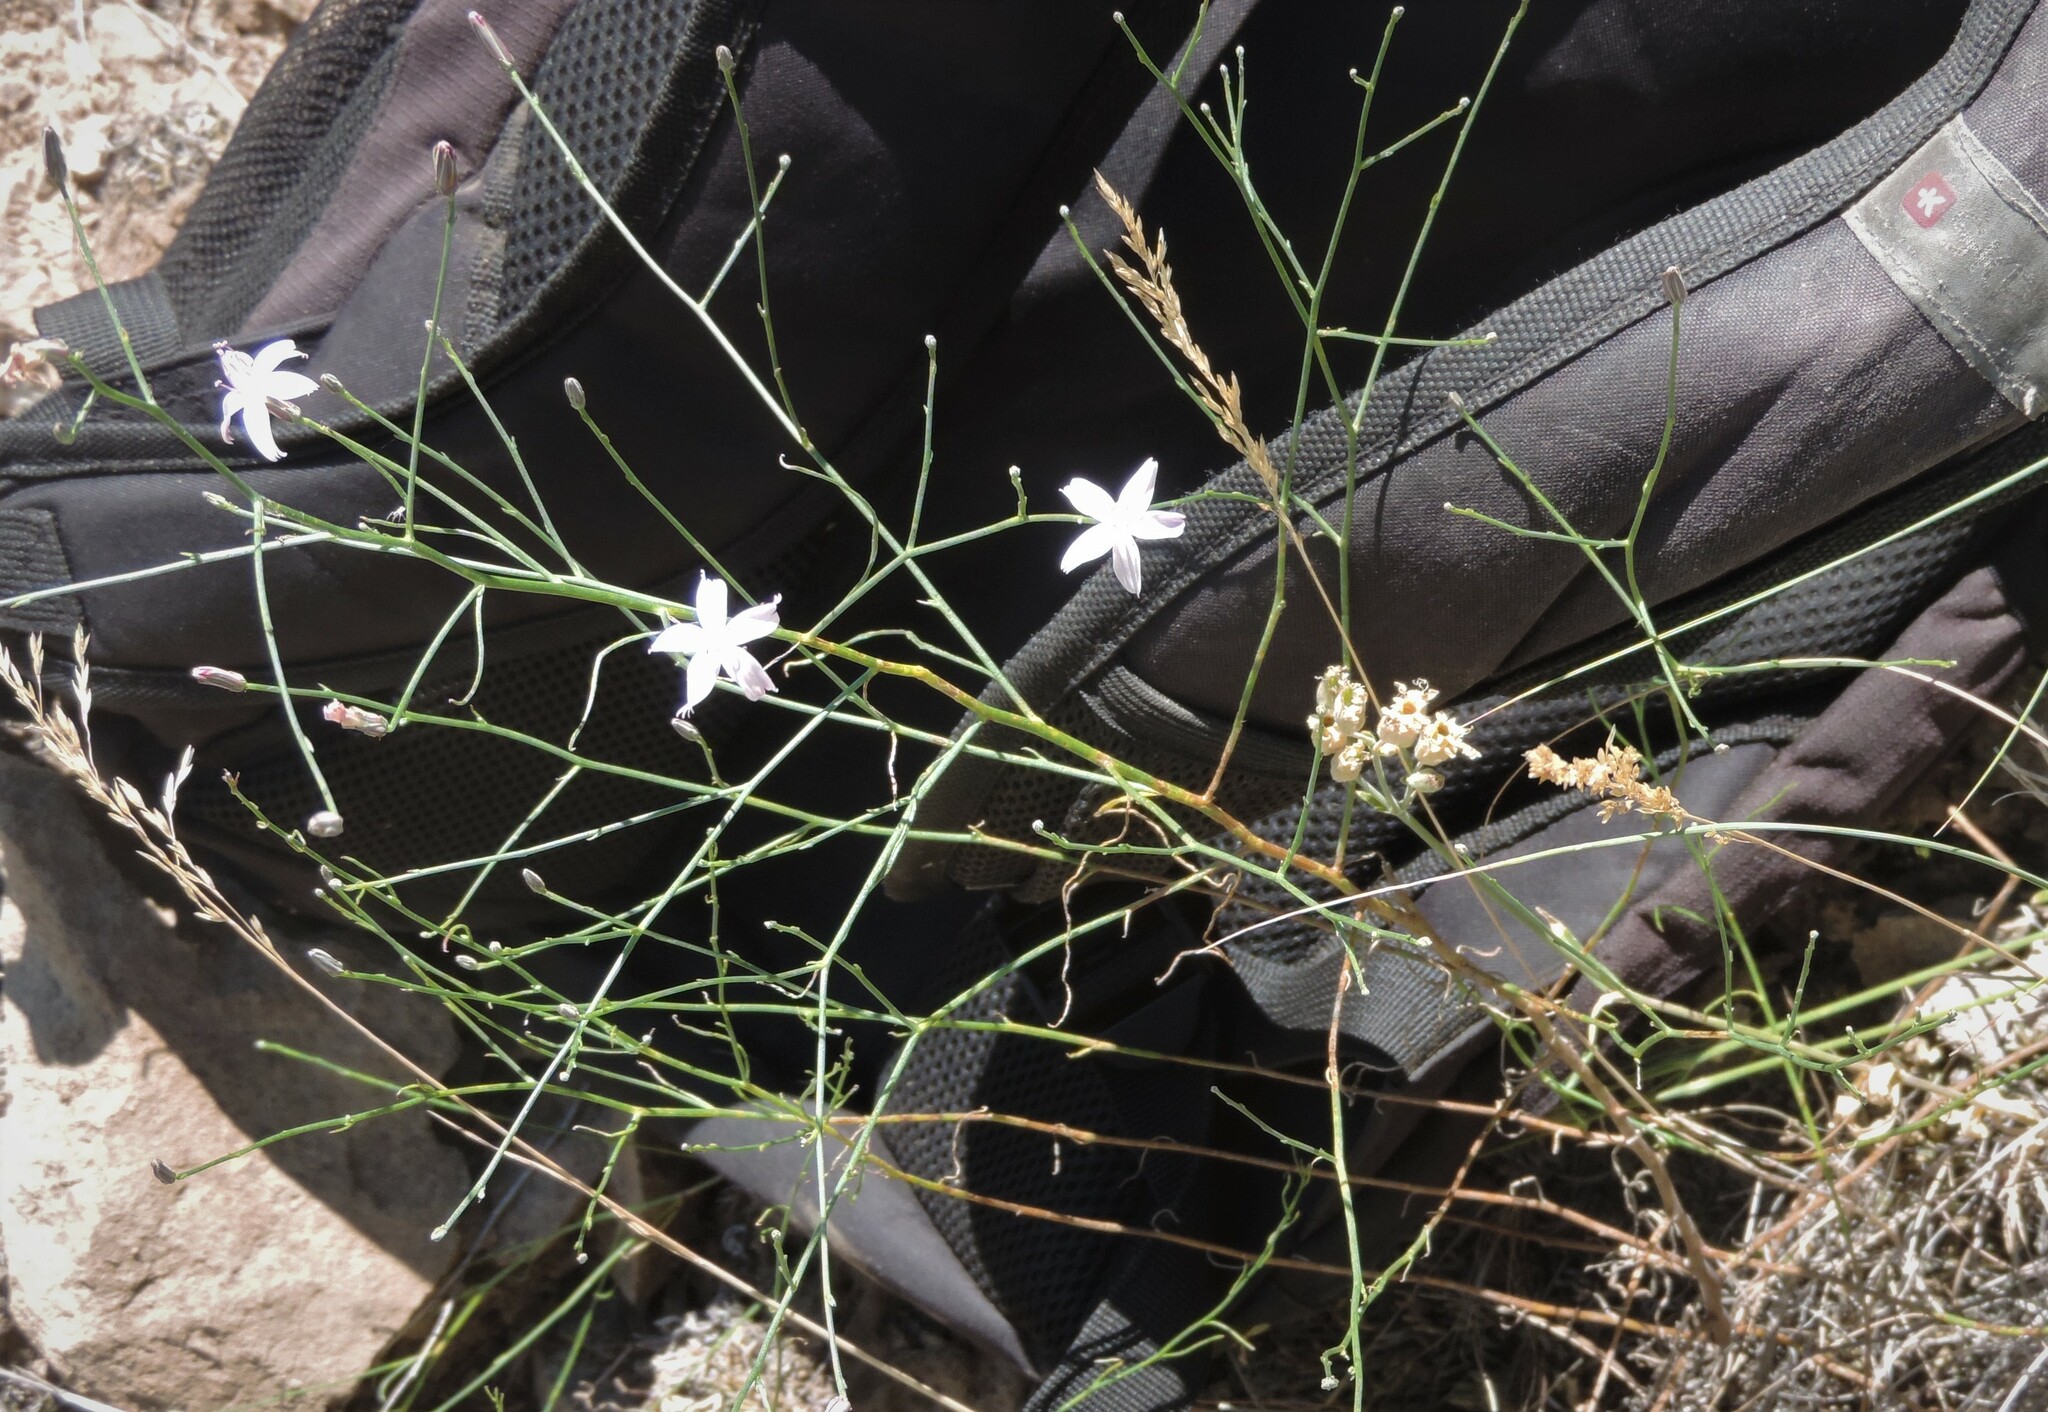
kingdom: Plantae
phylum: Tracheophyta
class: Magnoliopsida
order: Asterales
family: Asteraceae
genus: Stephanomeria
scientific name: Stephanomeria tenuifolia
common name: Slender wirelettuce
